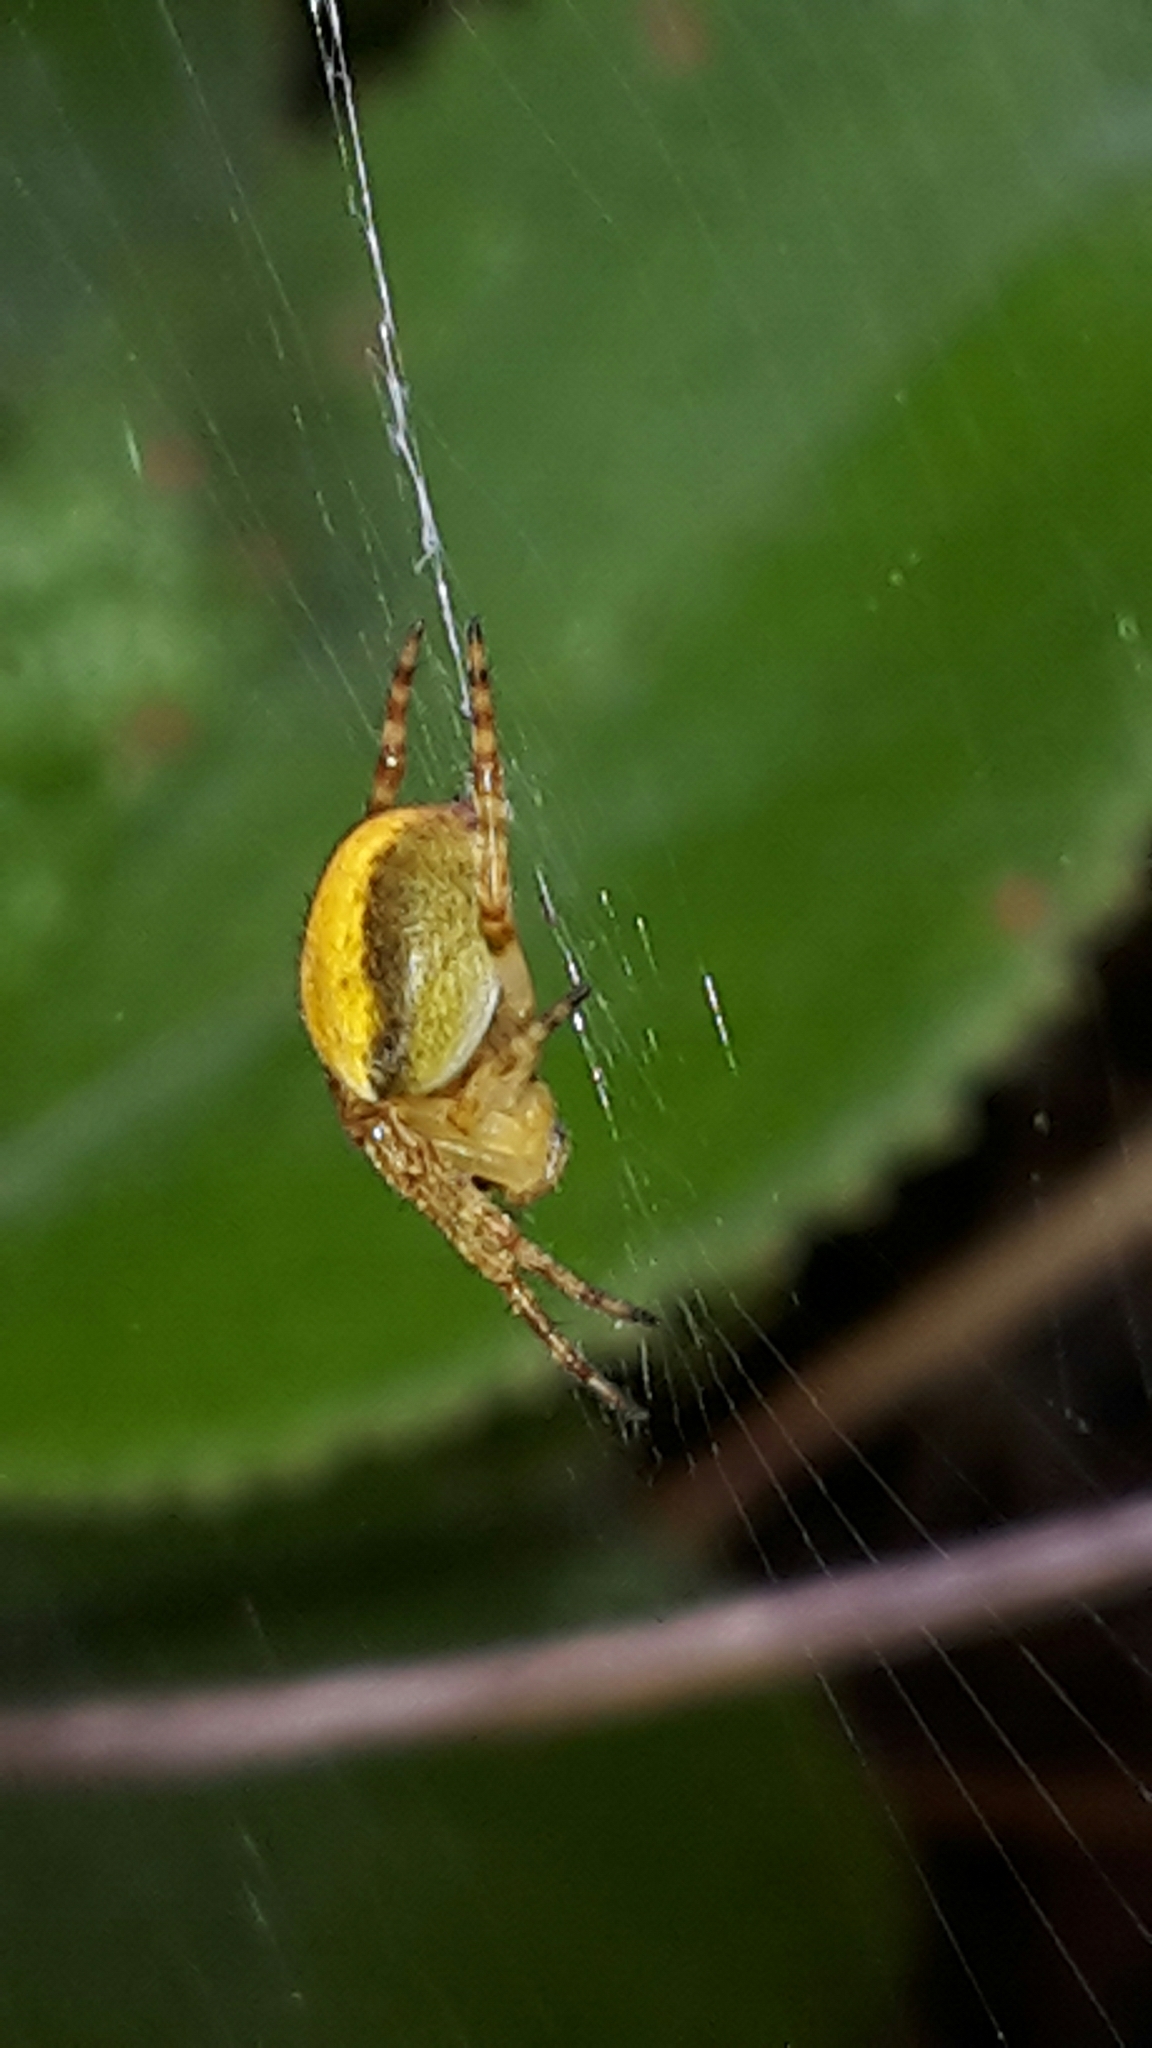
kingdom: Animalia
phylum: Arthropoda
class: Arachnida
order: Araneae
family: Araneidae
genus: Colaranea
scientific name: Colaranea viriditas
